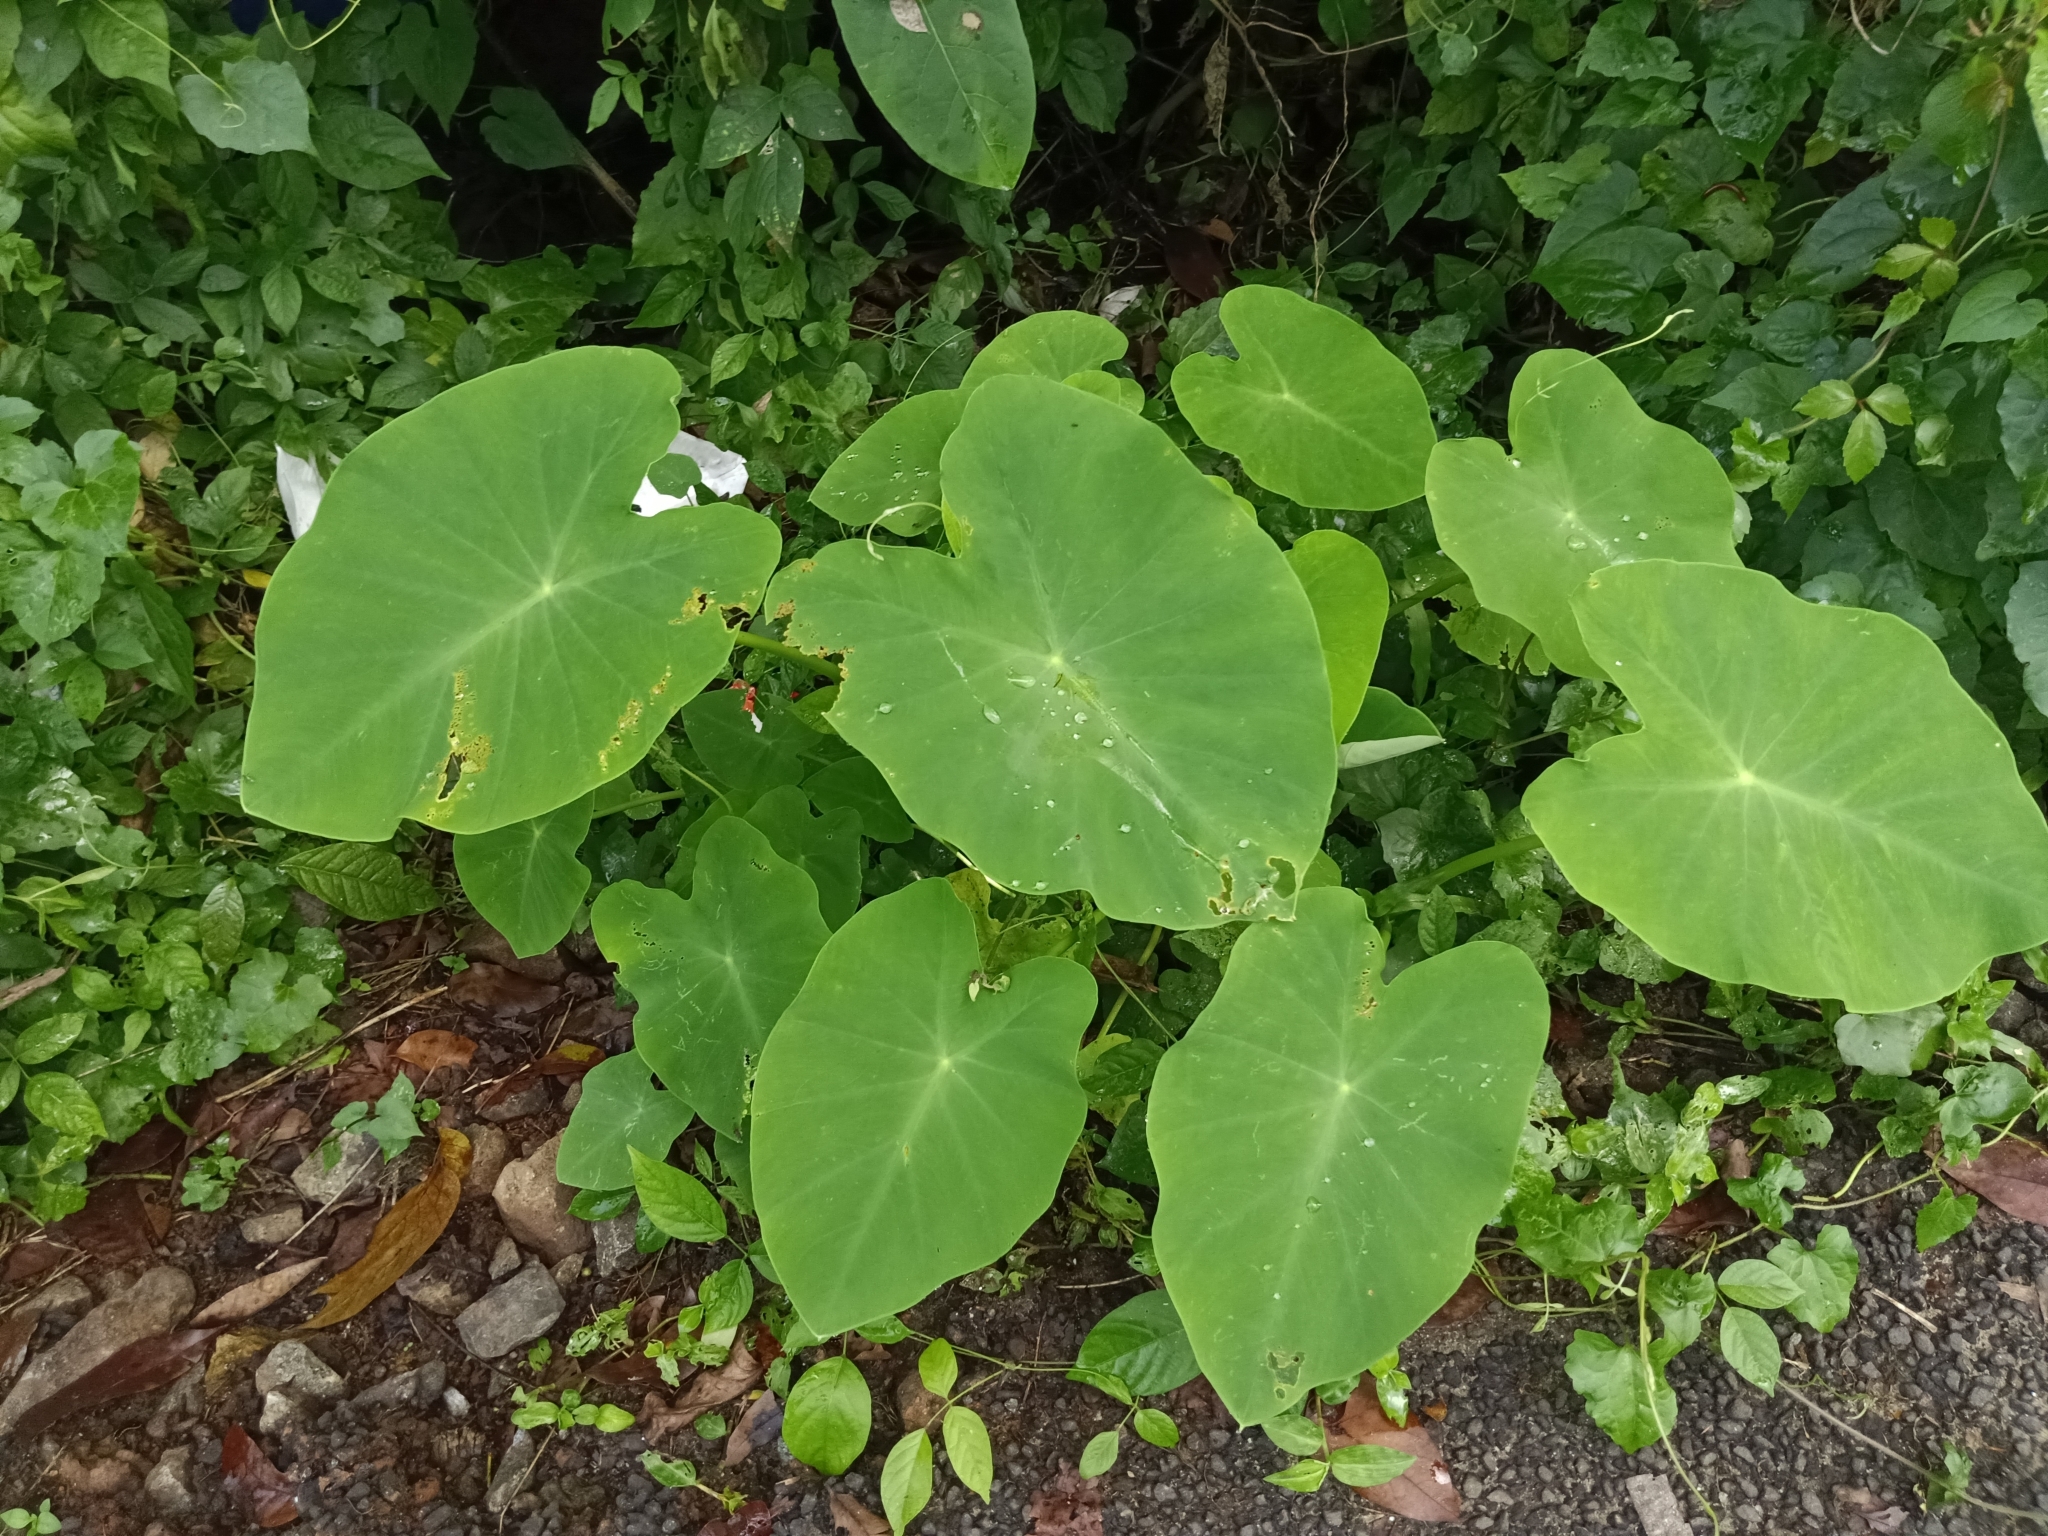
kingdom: Plantae
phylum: Tracheophyta
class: Liliopsida
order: Alismatales
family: Araceae
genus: Colocasia
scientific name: Colocasia esculenta
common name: Taro
